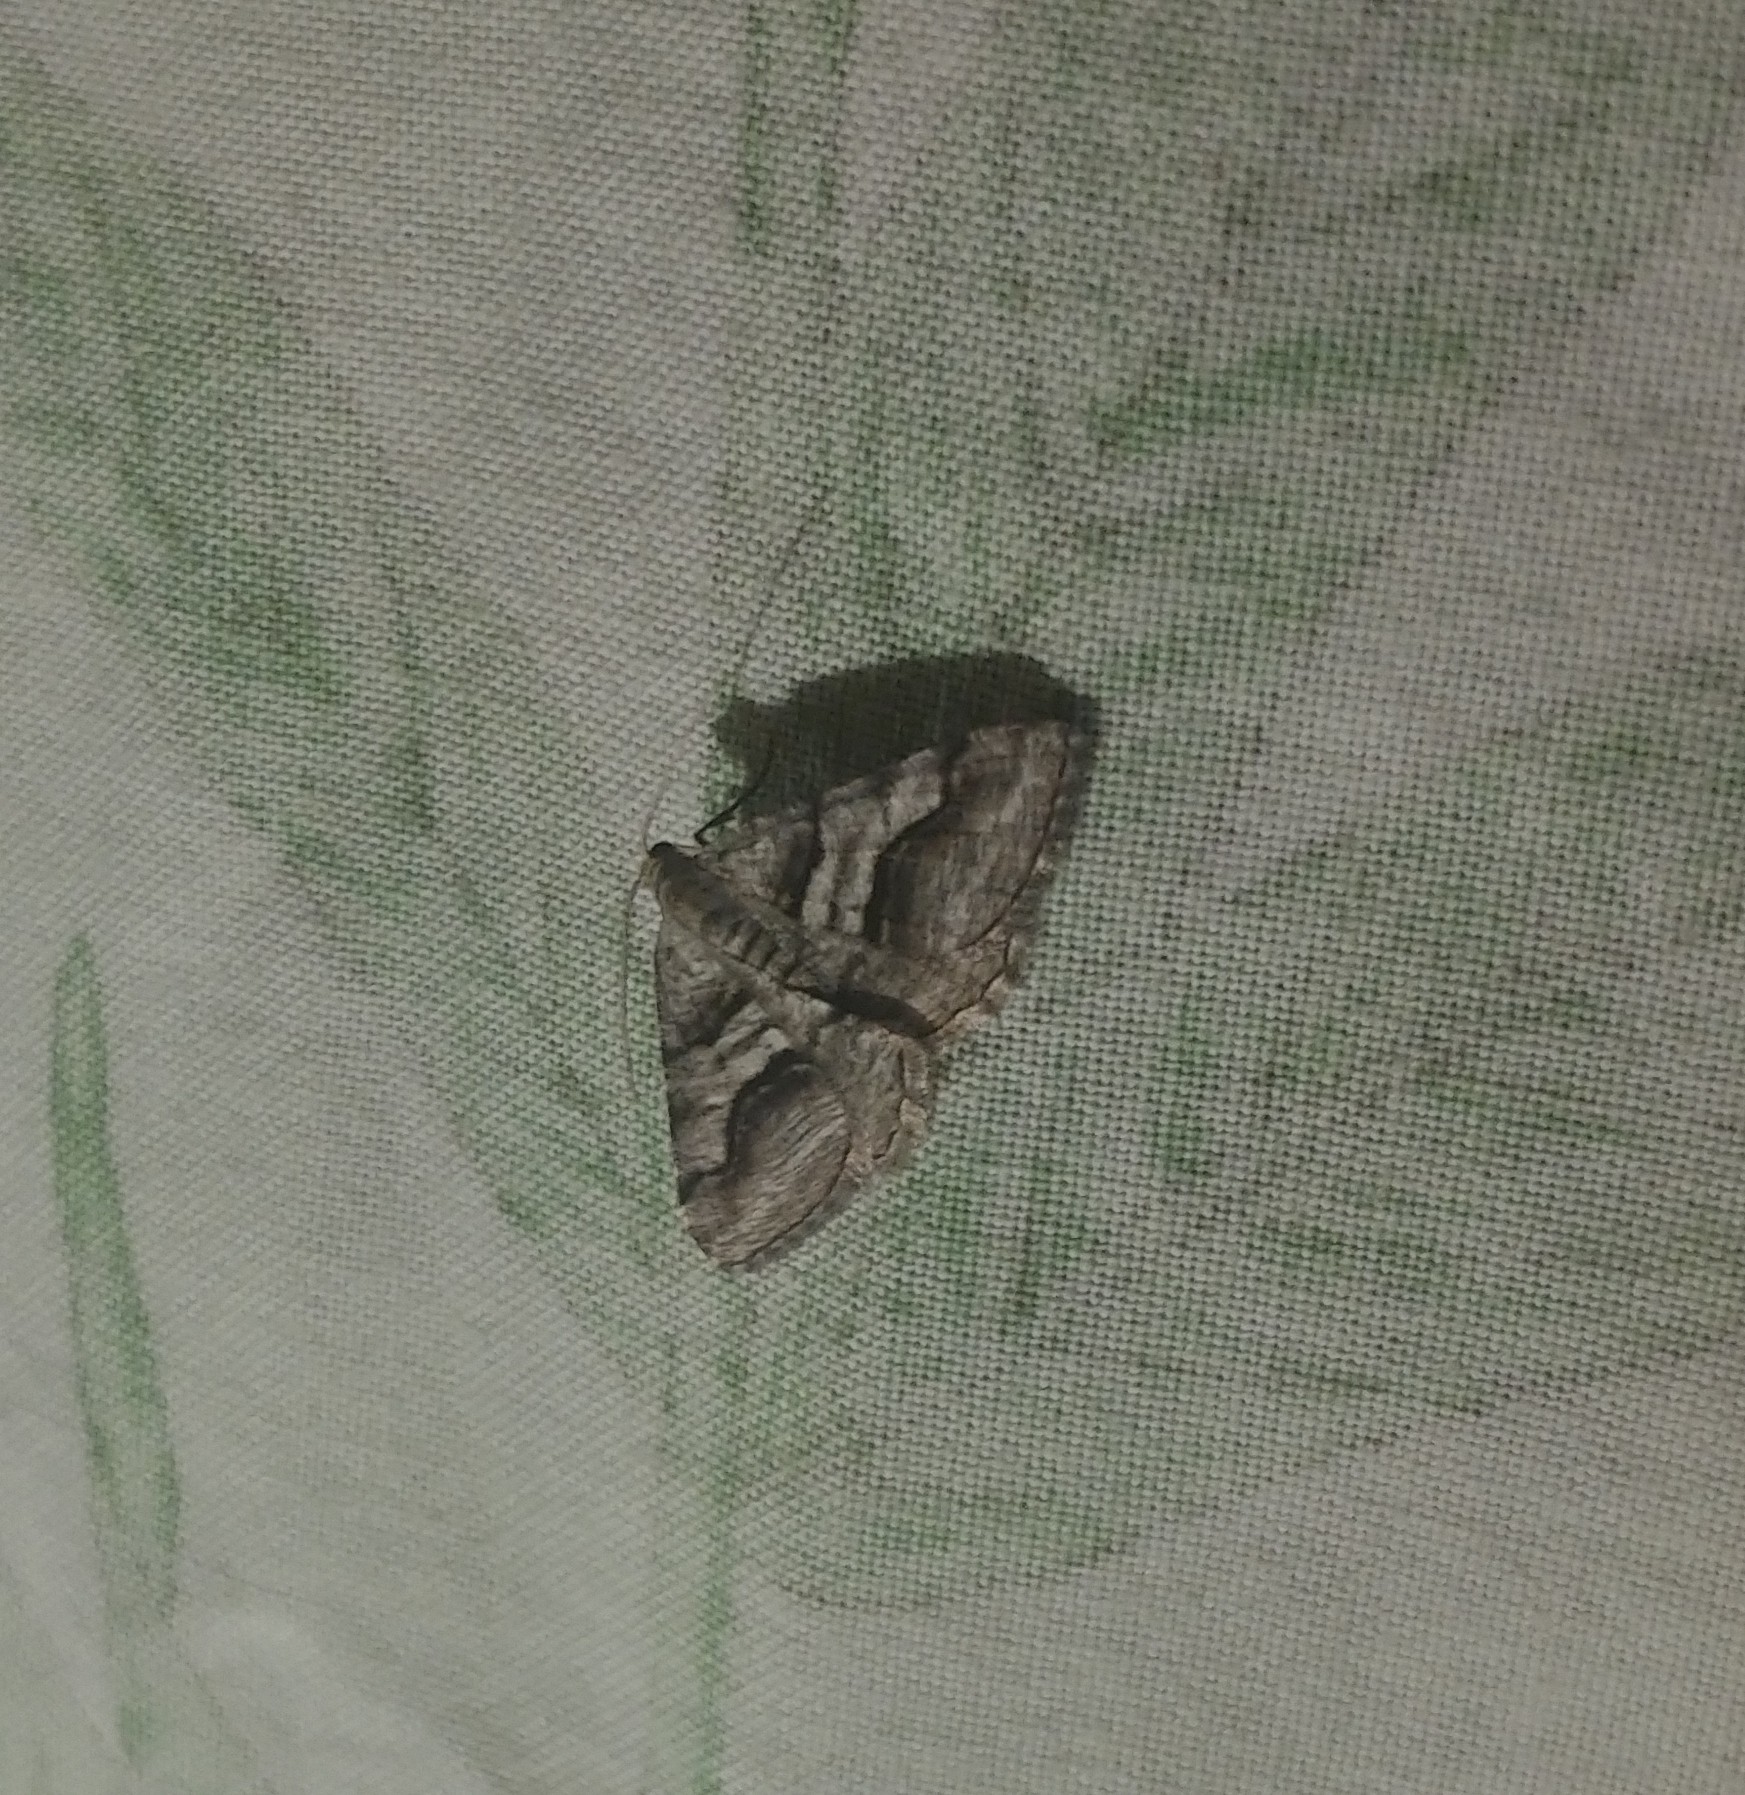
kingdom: Animalia
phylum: Arthropoda
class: Insecta
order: Lepidoptera
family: Geometridae
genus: Digrammia
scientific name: Digrammia continuata
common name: Curve-lined angle
